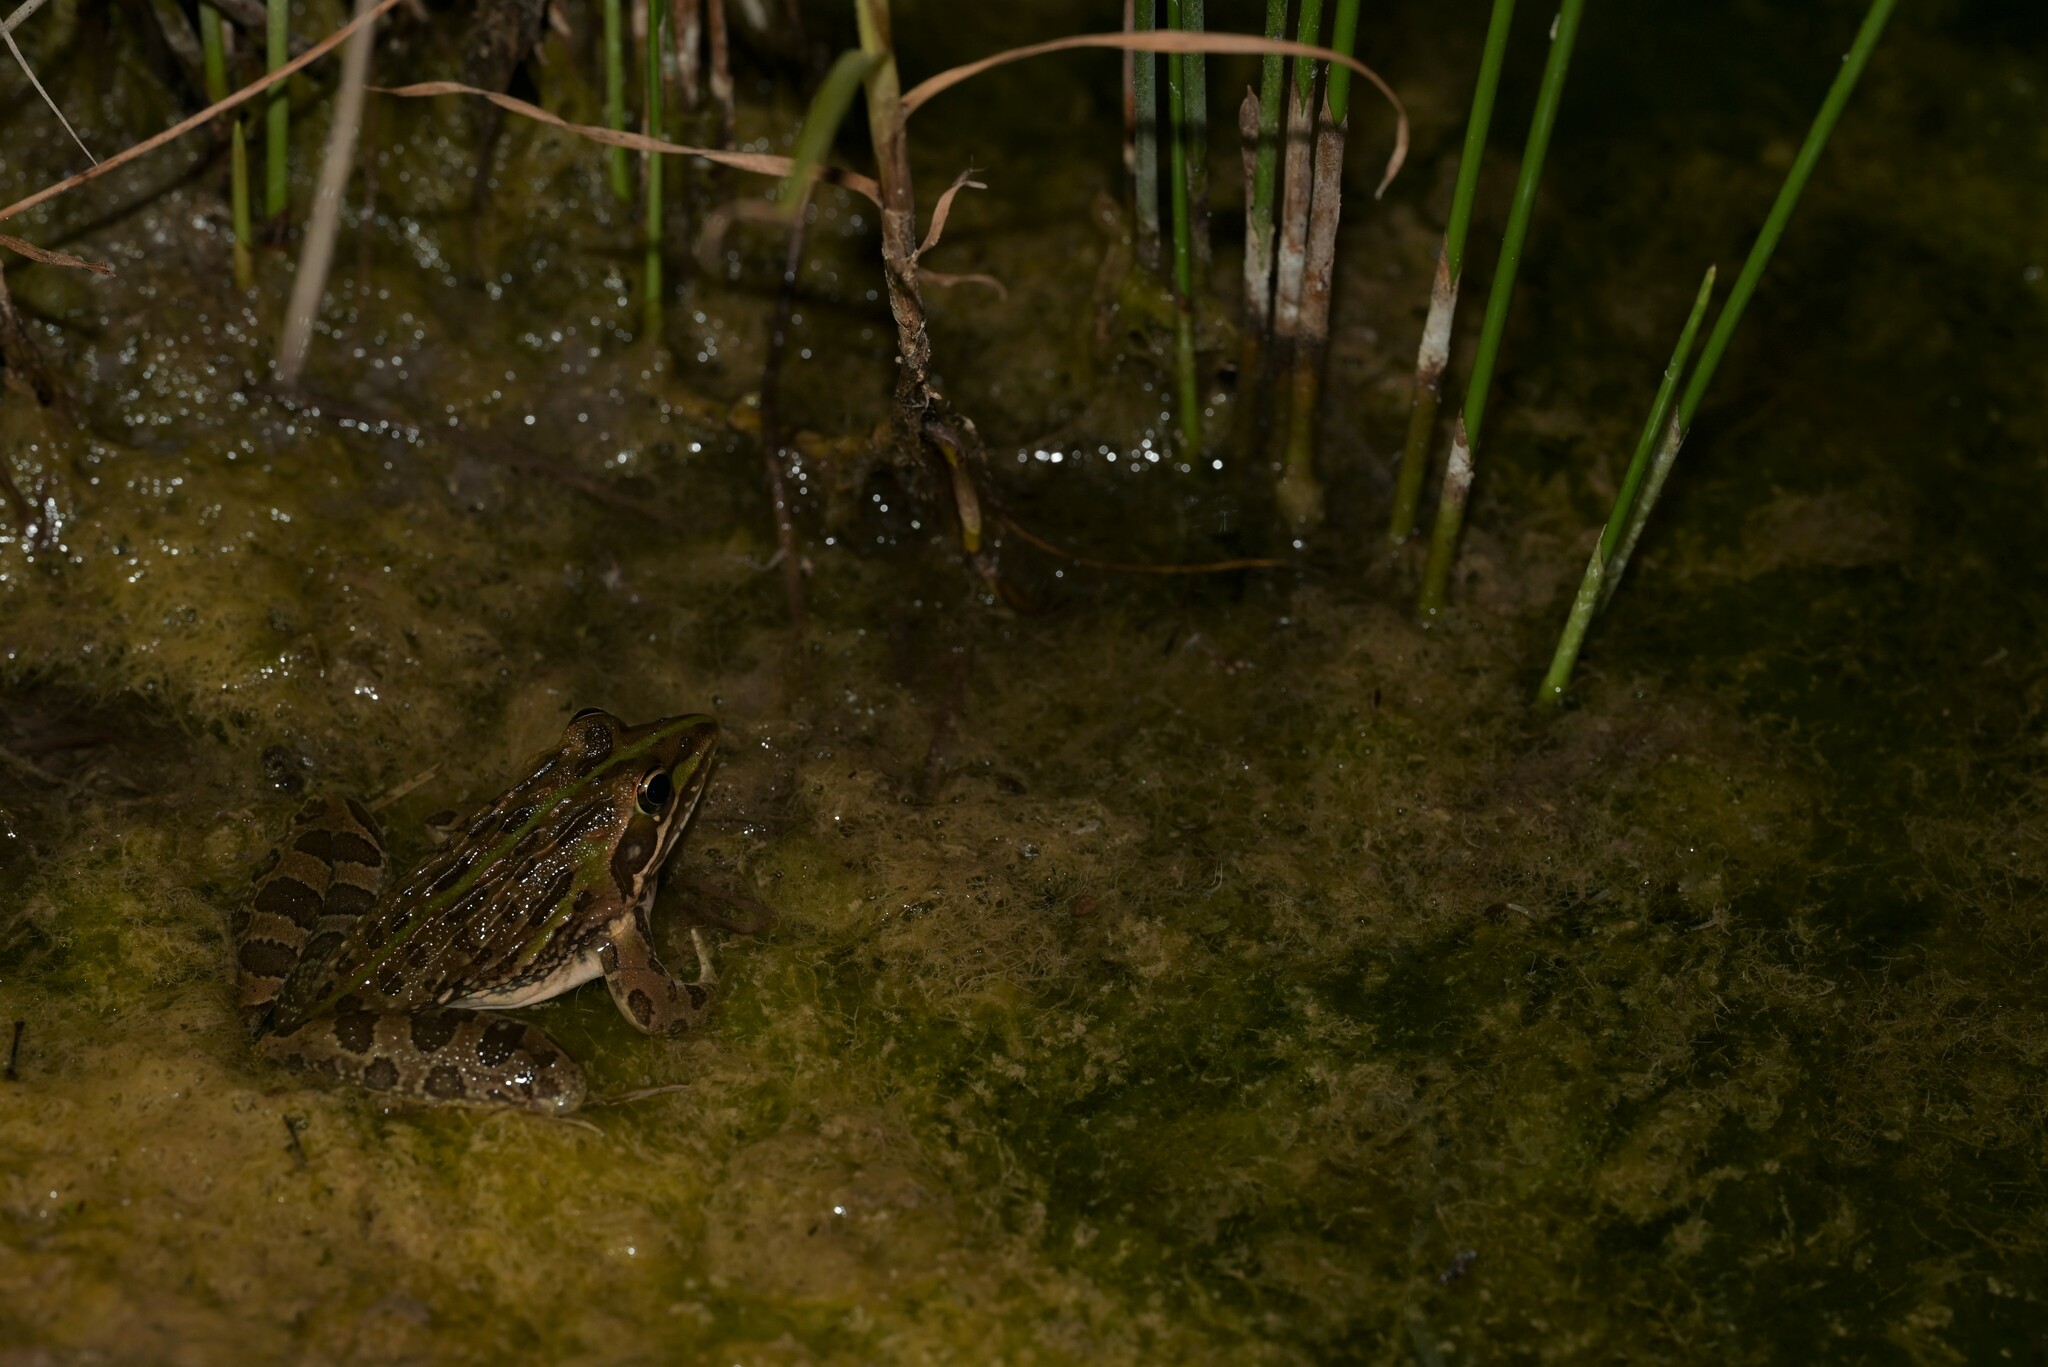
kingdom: Animalia
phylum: Chordata
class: Amphibia
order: Anura
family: Pyxicephalidae
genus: Amietia
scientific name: Amietia delalandii
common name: Delalande's river frog
